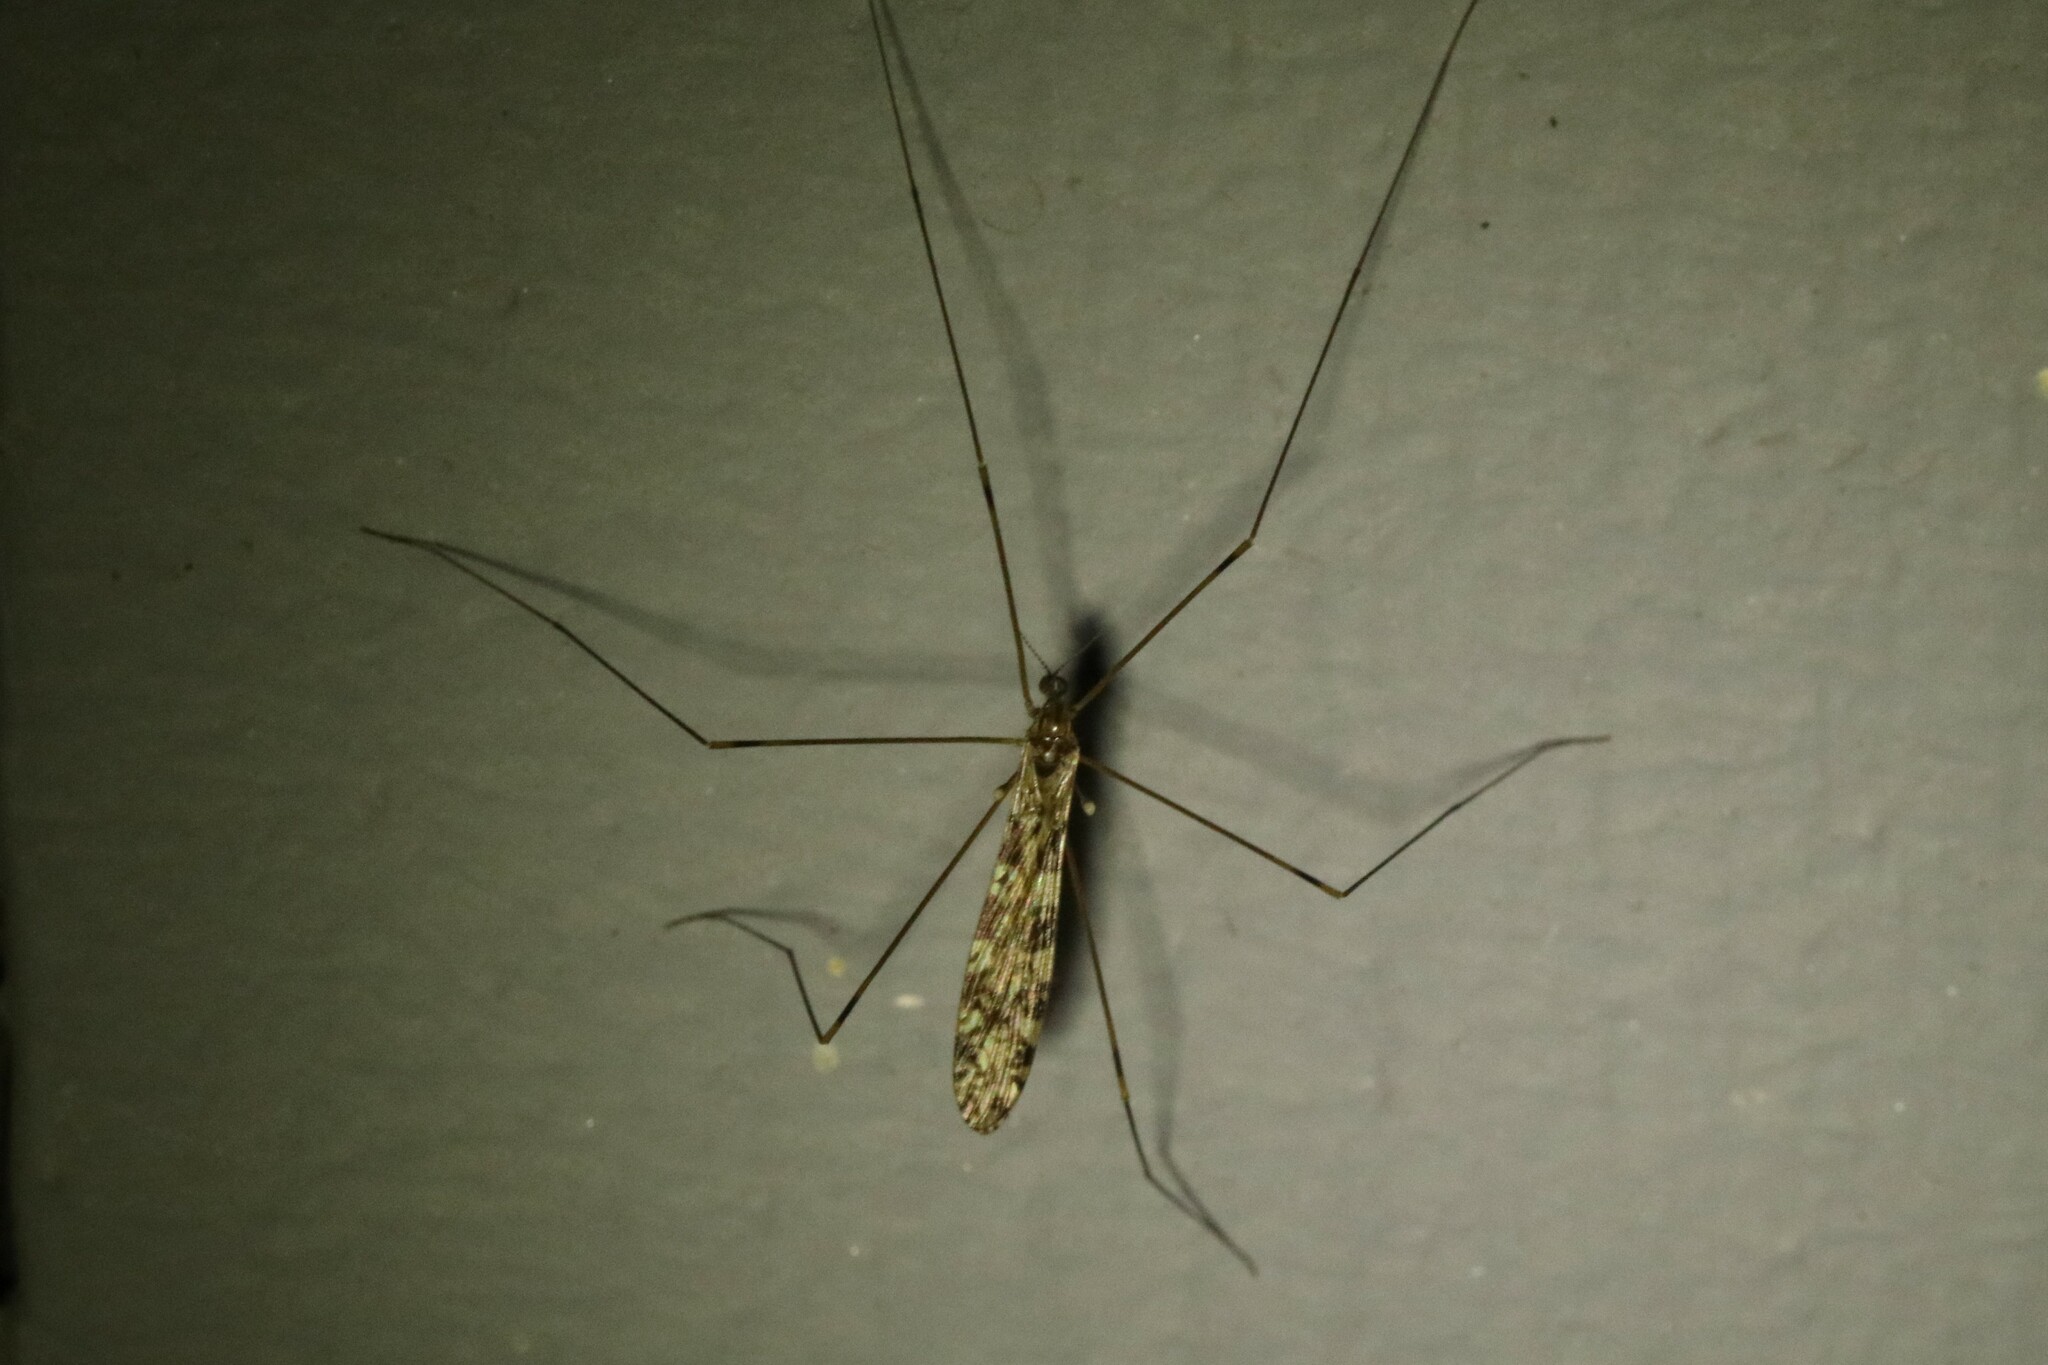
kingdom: Animalia
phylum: Arthropoda
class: Insecta
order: Diptera
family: Limoniidae
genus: Limonia
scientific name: Limonia annulata
